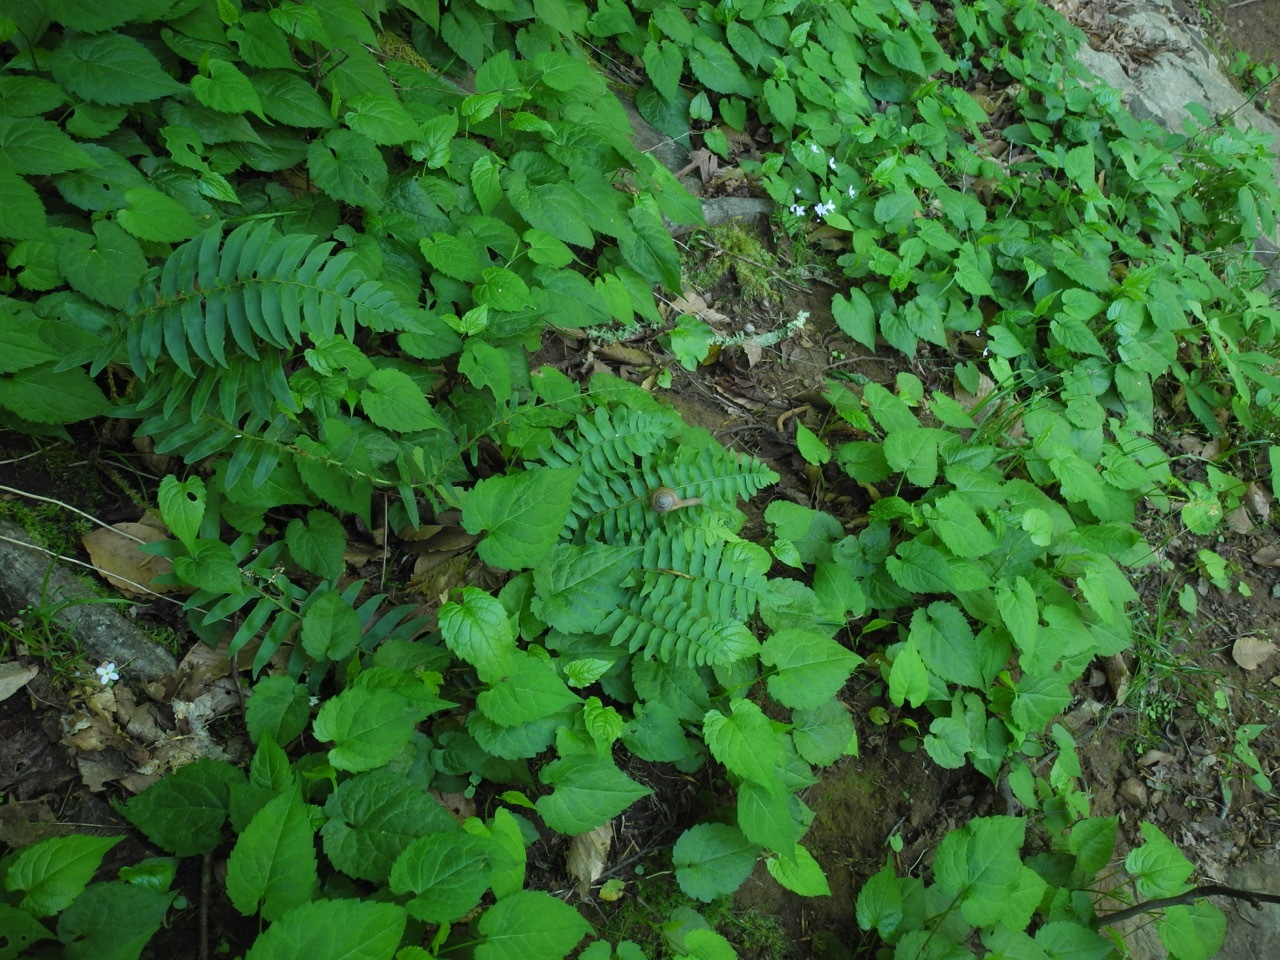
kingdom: Plantae
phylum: Tracheophyta
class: Magnoliopsida
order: Asterales
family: Asteraceae
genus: Eurybia
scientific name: Eurybia divaricata
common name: White wood aster
